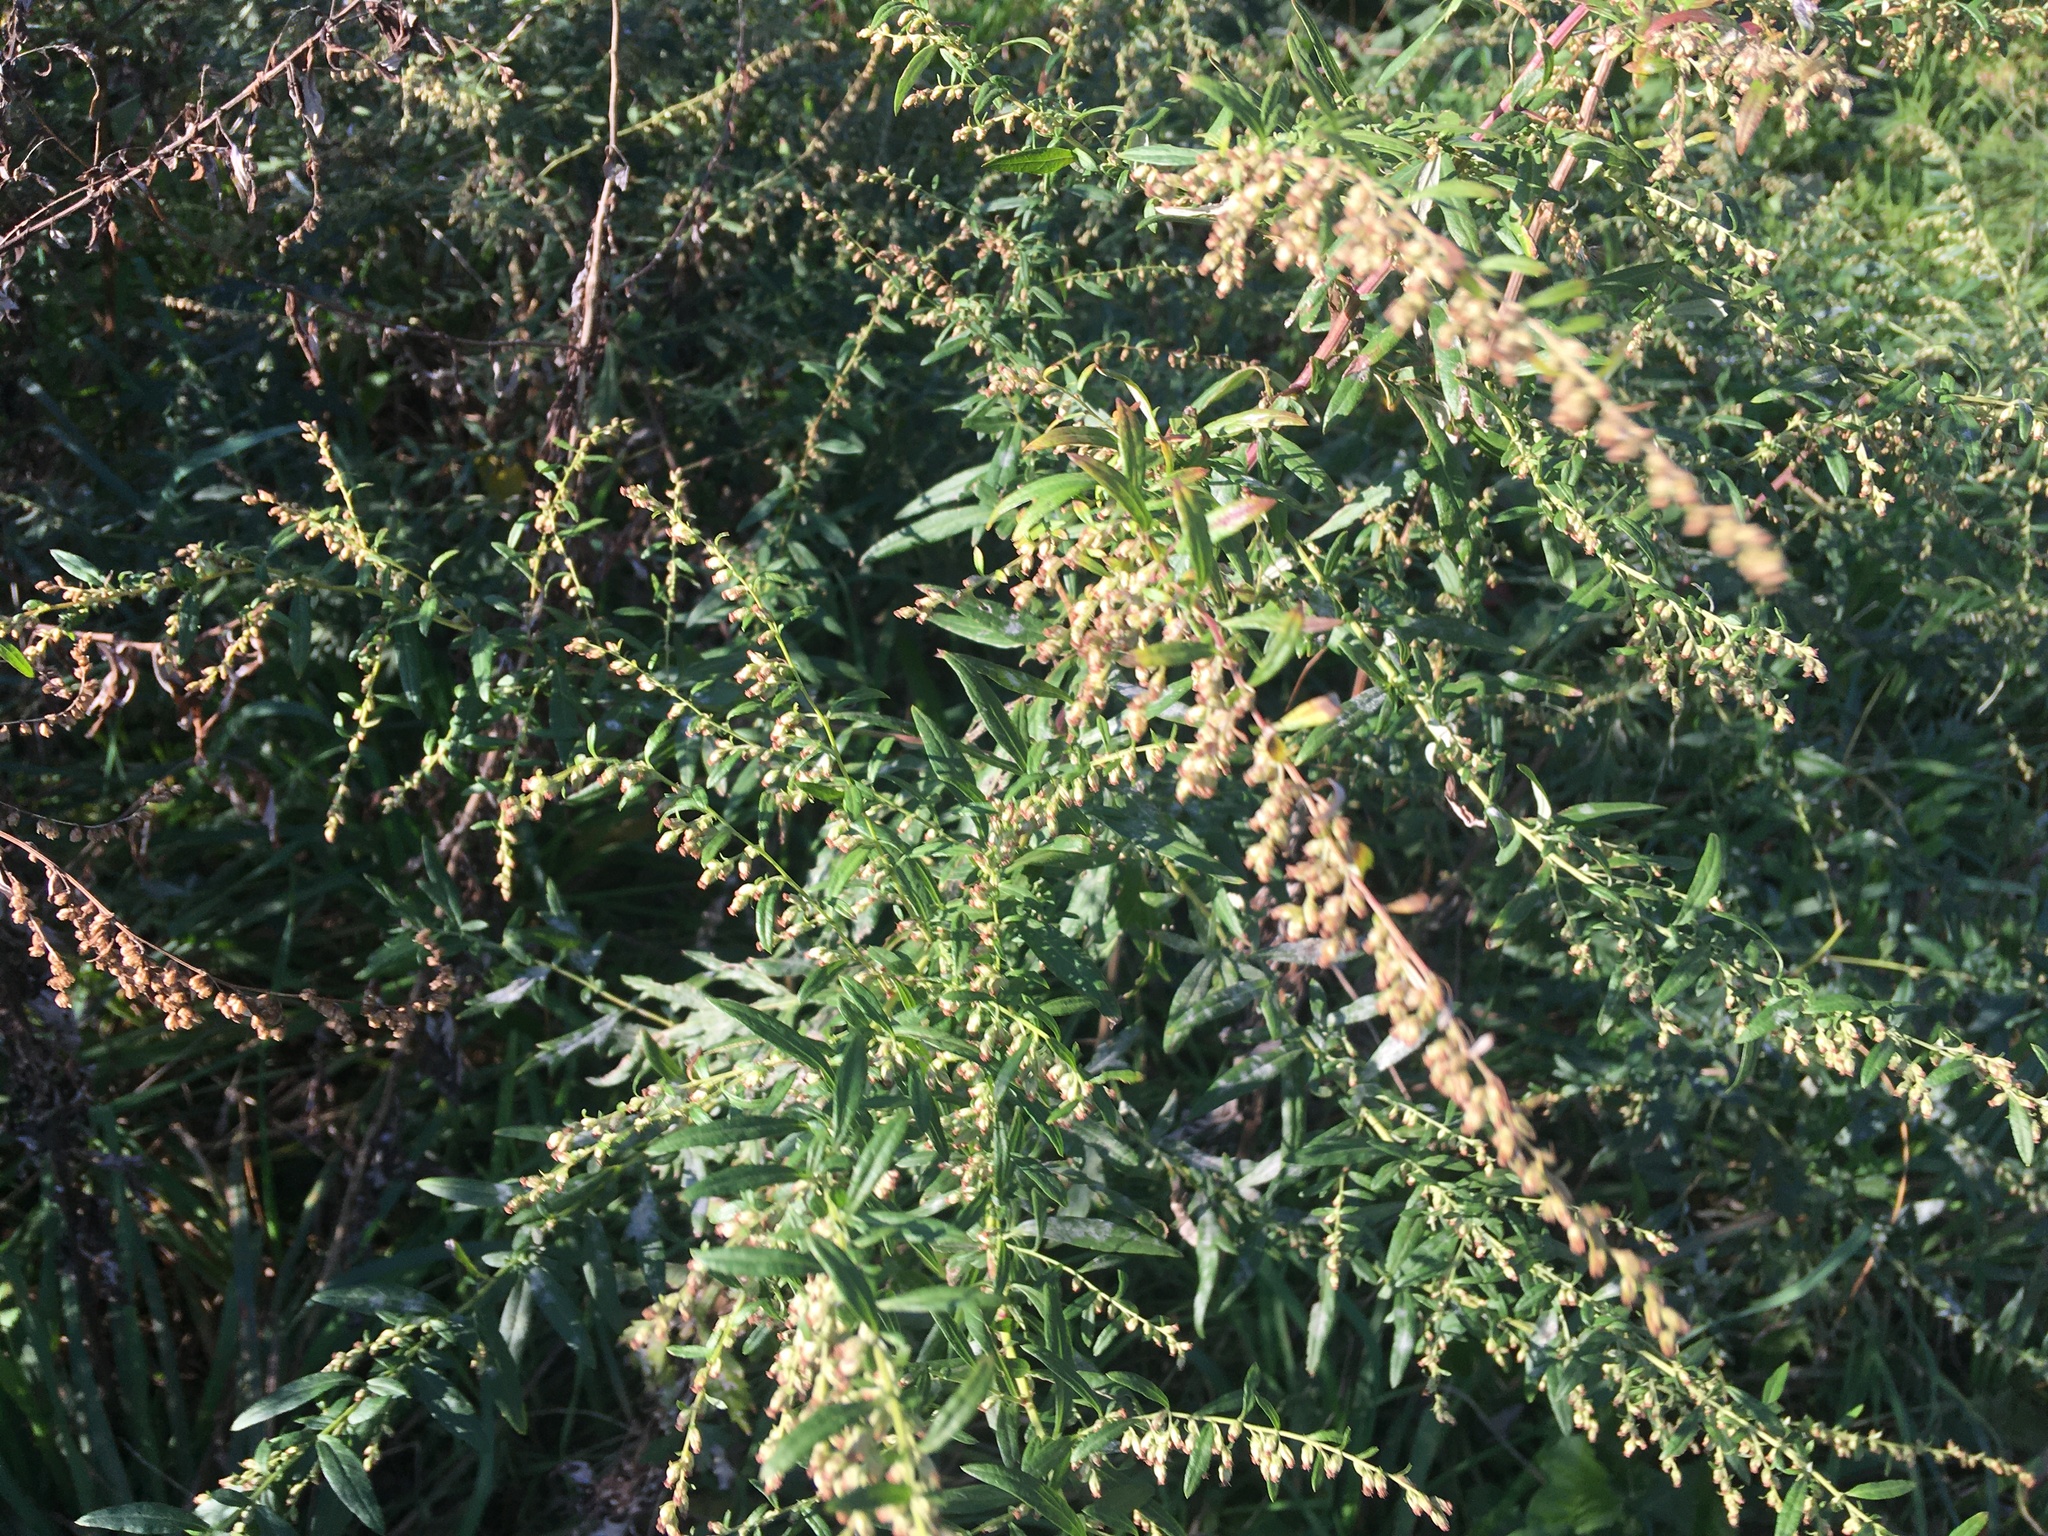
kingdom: Plantae
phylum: Tracheophyta
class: Magnoliopsida
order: Asterales
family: Asteraceae
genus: Artemisia
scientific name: Artemisia vulgaris
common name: Mugwort
